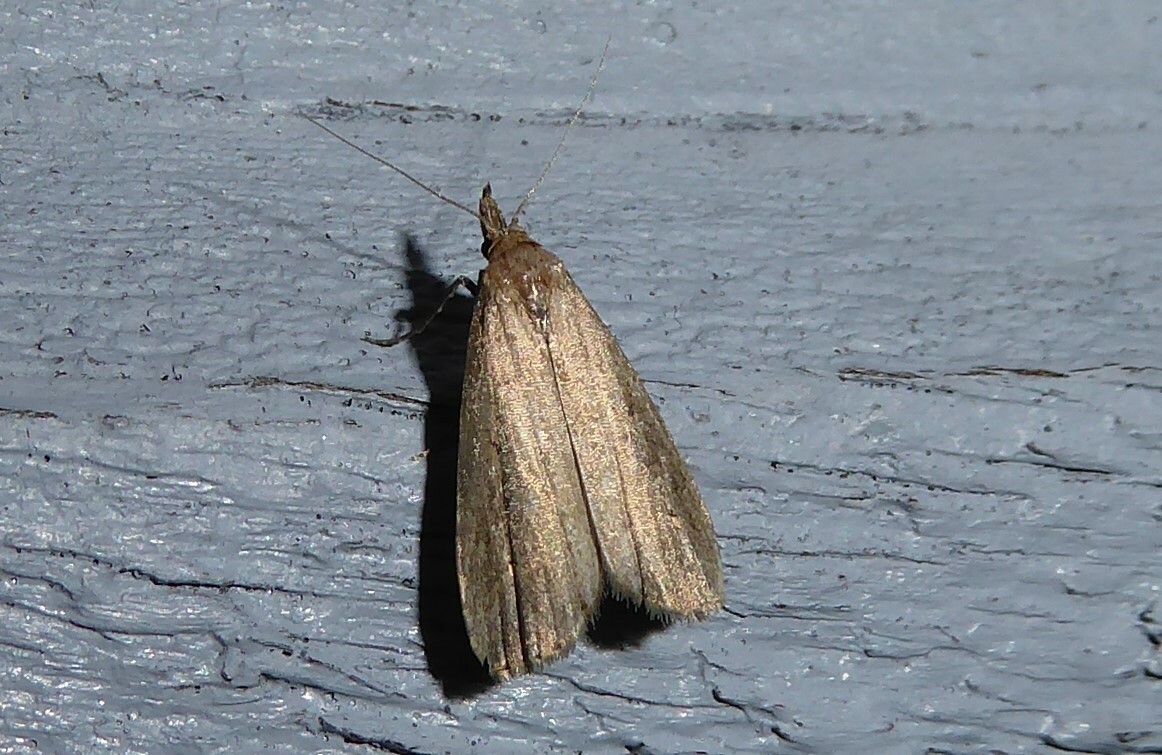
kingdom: Animalia
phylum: Arthropoda
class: Insecta
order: Lepidoptera
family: Erebidae
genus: Schrankia
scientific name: Schrankia costaestrigalis
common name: Pinion-streaked snout
